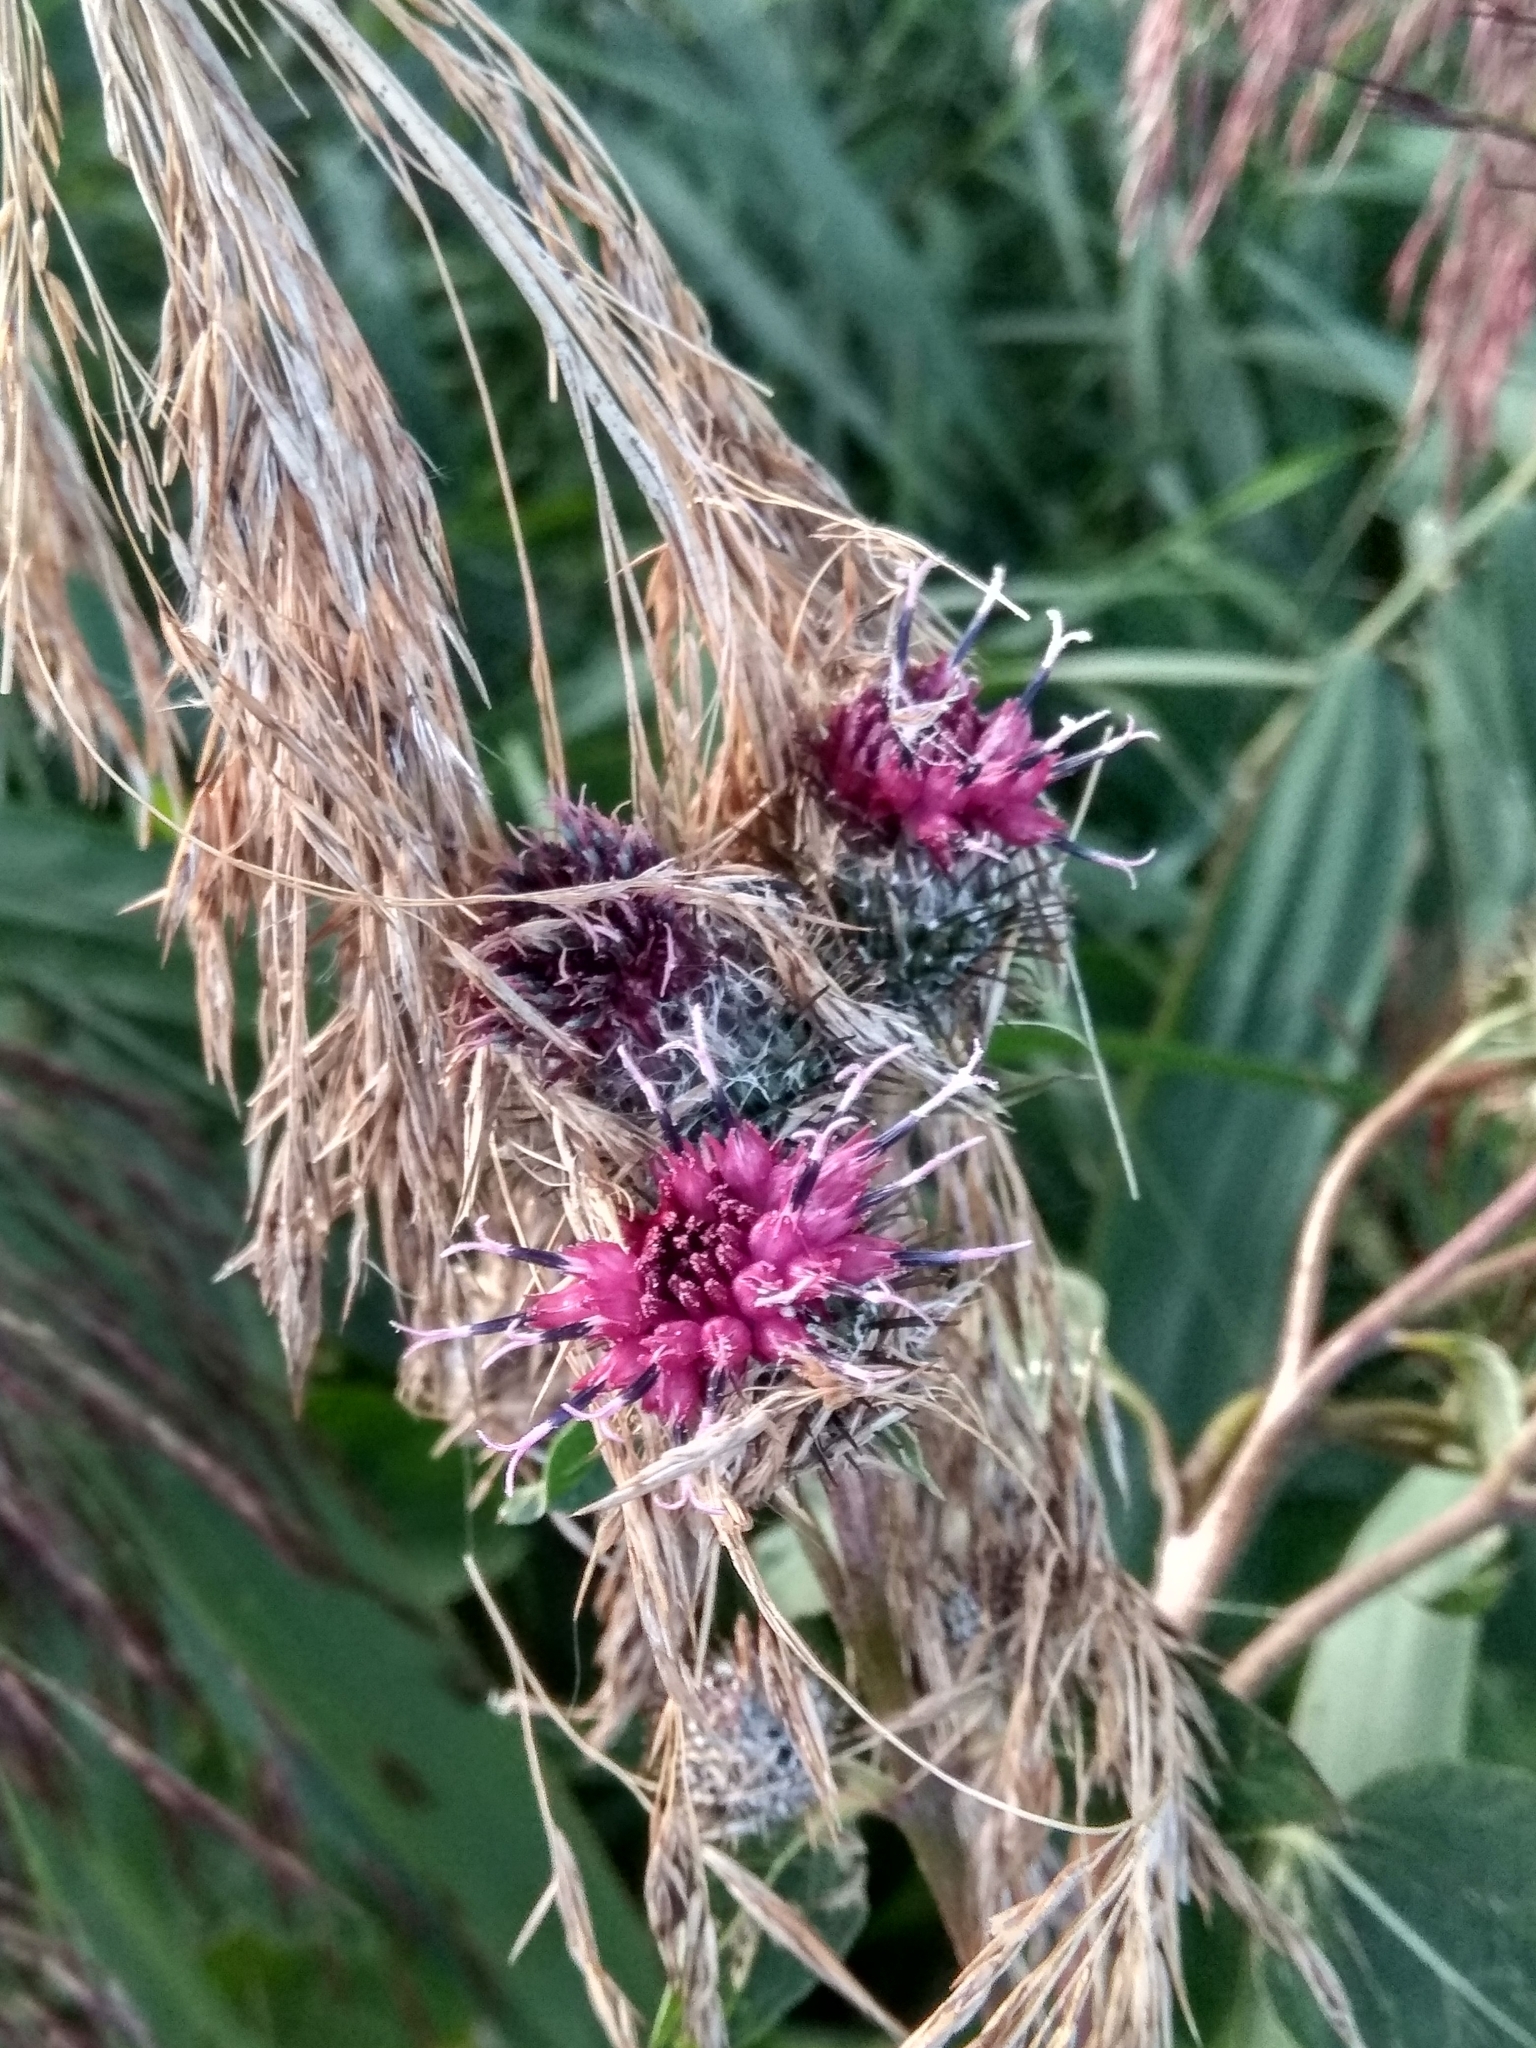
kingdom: Plantae
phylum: Tracheophyta
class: Magnoliopsida
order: Asterales
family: Asteraceae
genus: Arctium
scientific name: Arctium tomentosum
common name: Woolly burdock
